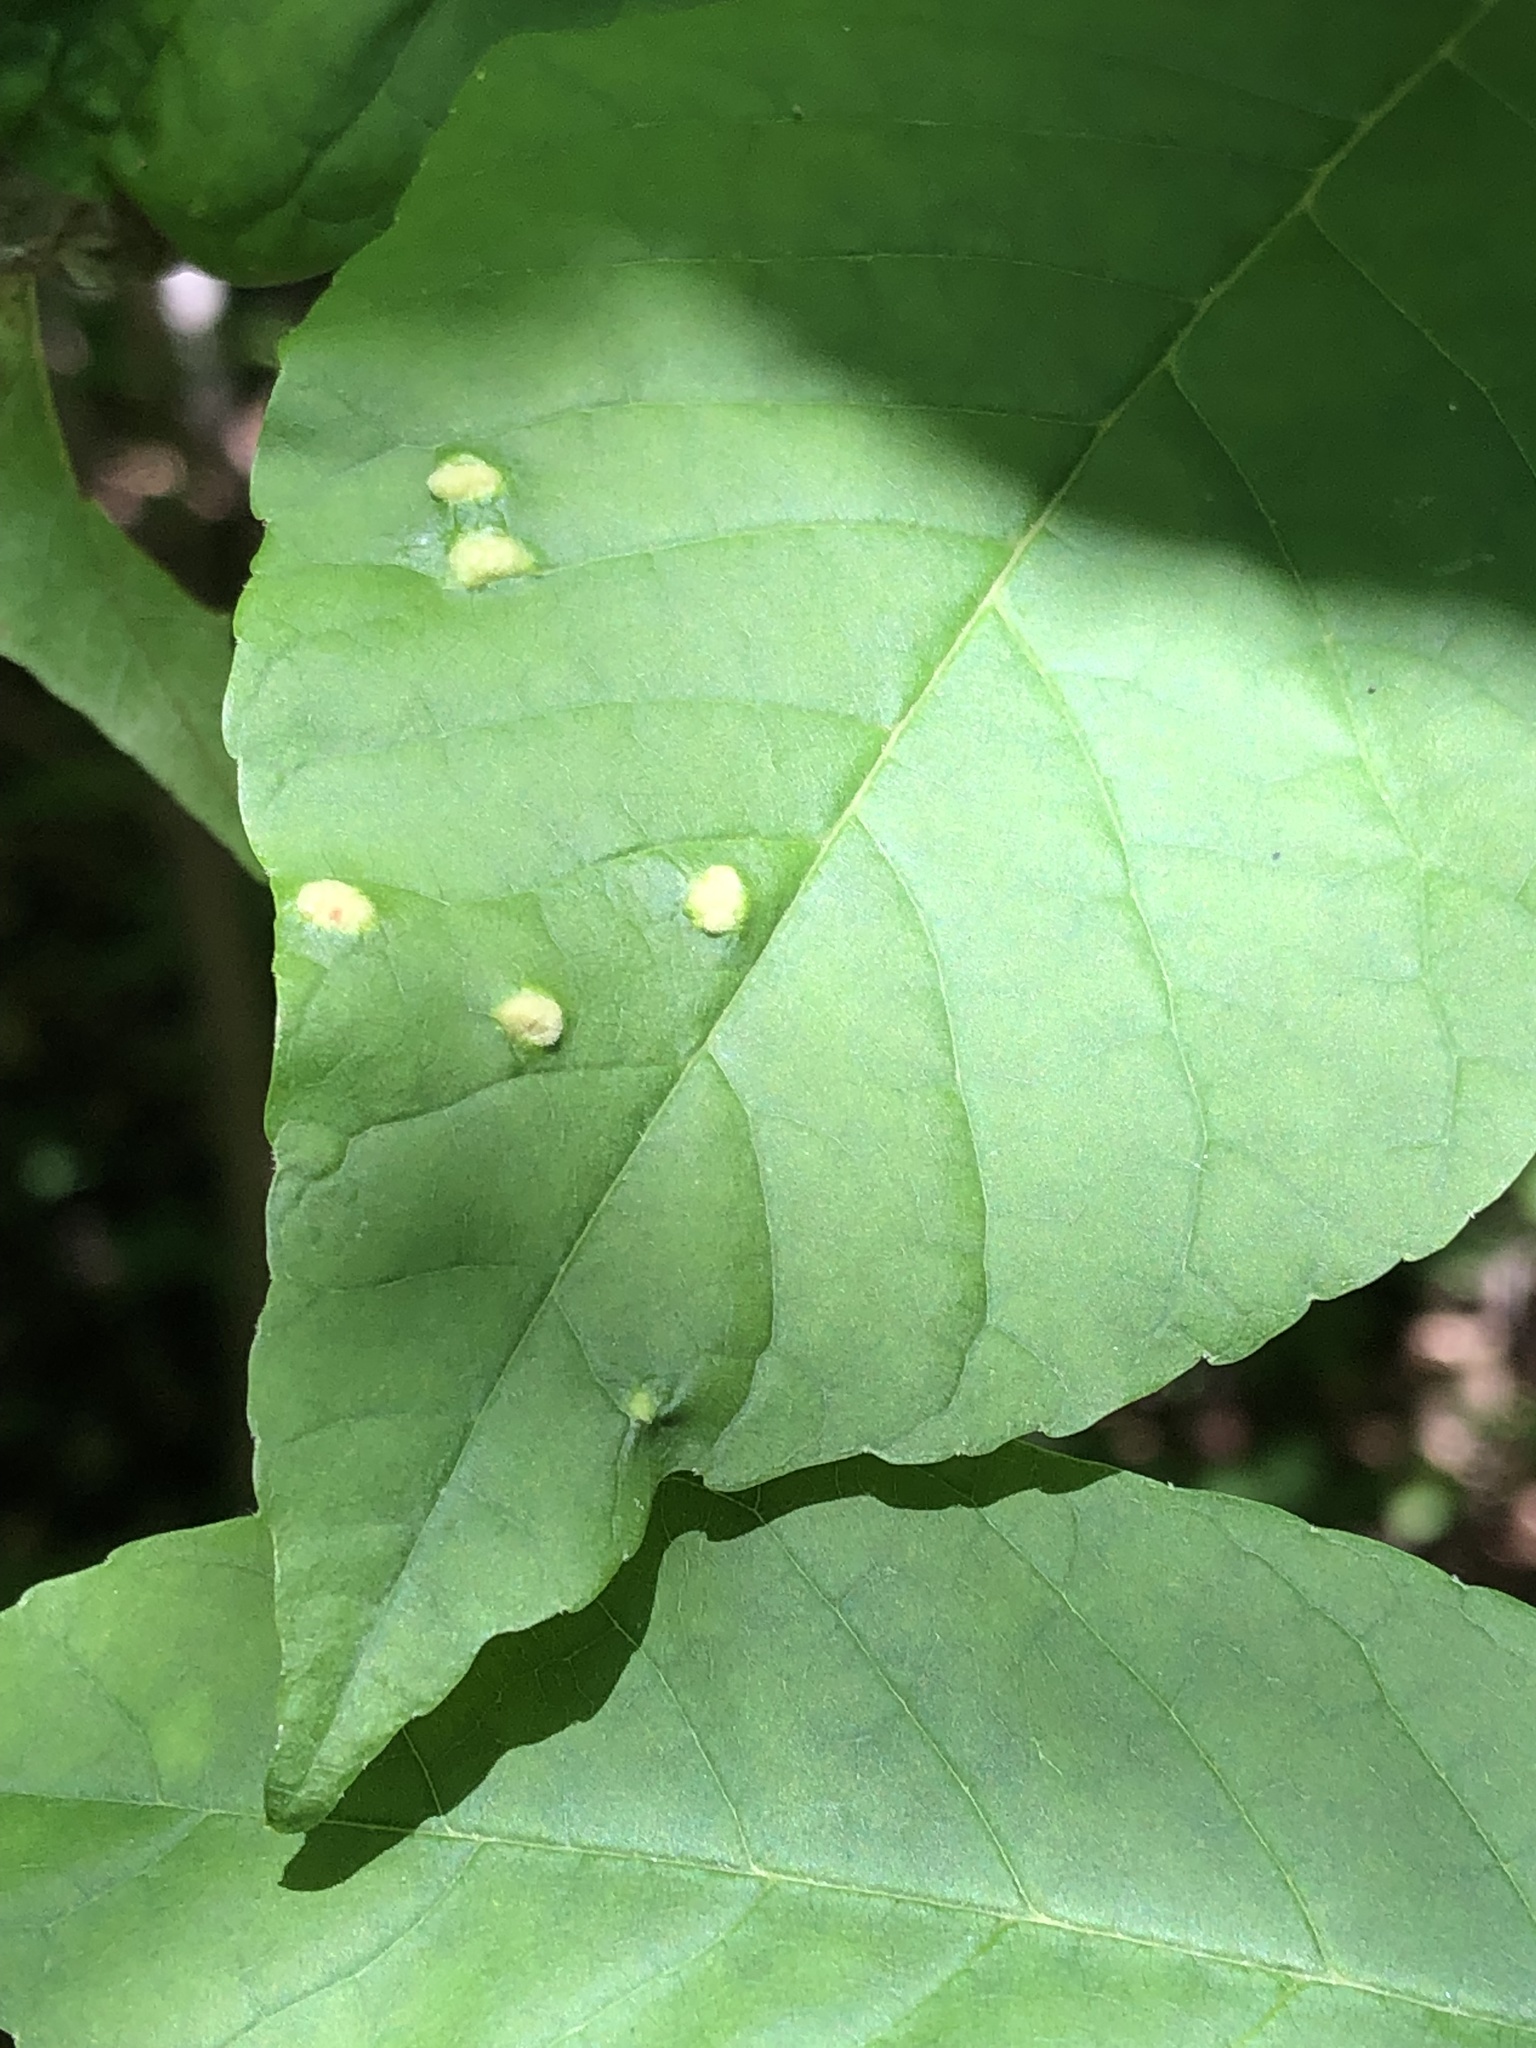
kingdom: Animalia
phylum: Arthropoda
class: Arachnida
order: Trombidiformes
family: Eriophyidae
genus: Aceria
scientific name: Aceria fraxinicola
